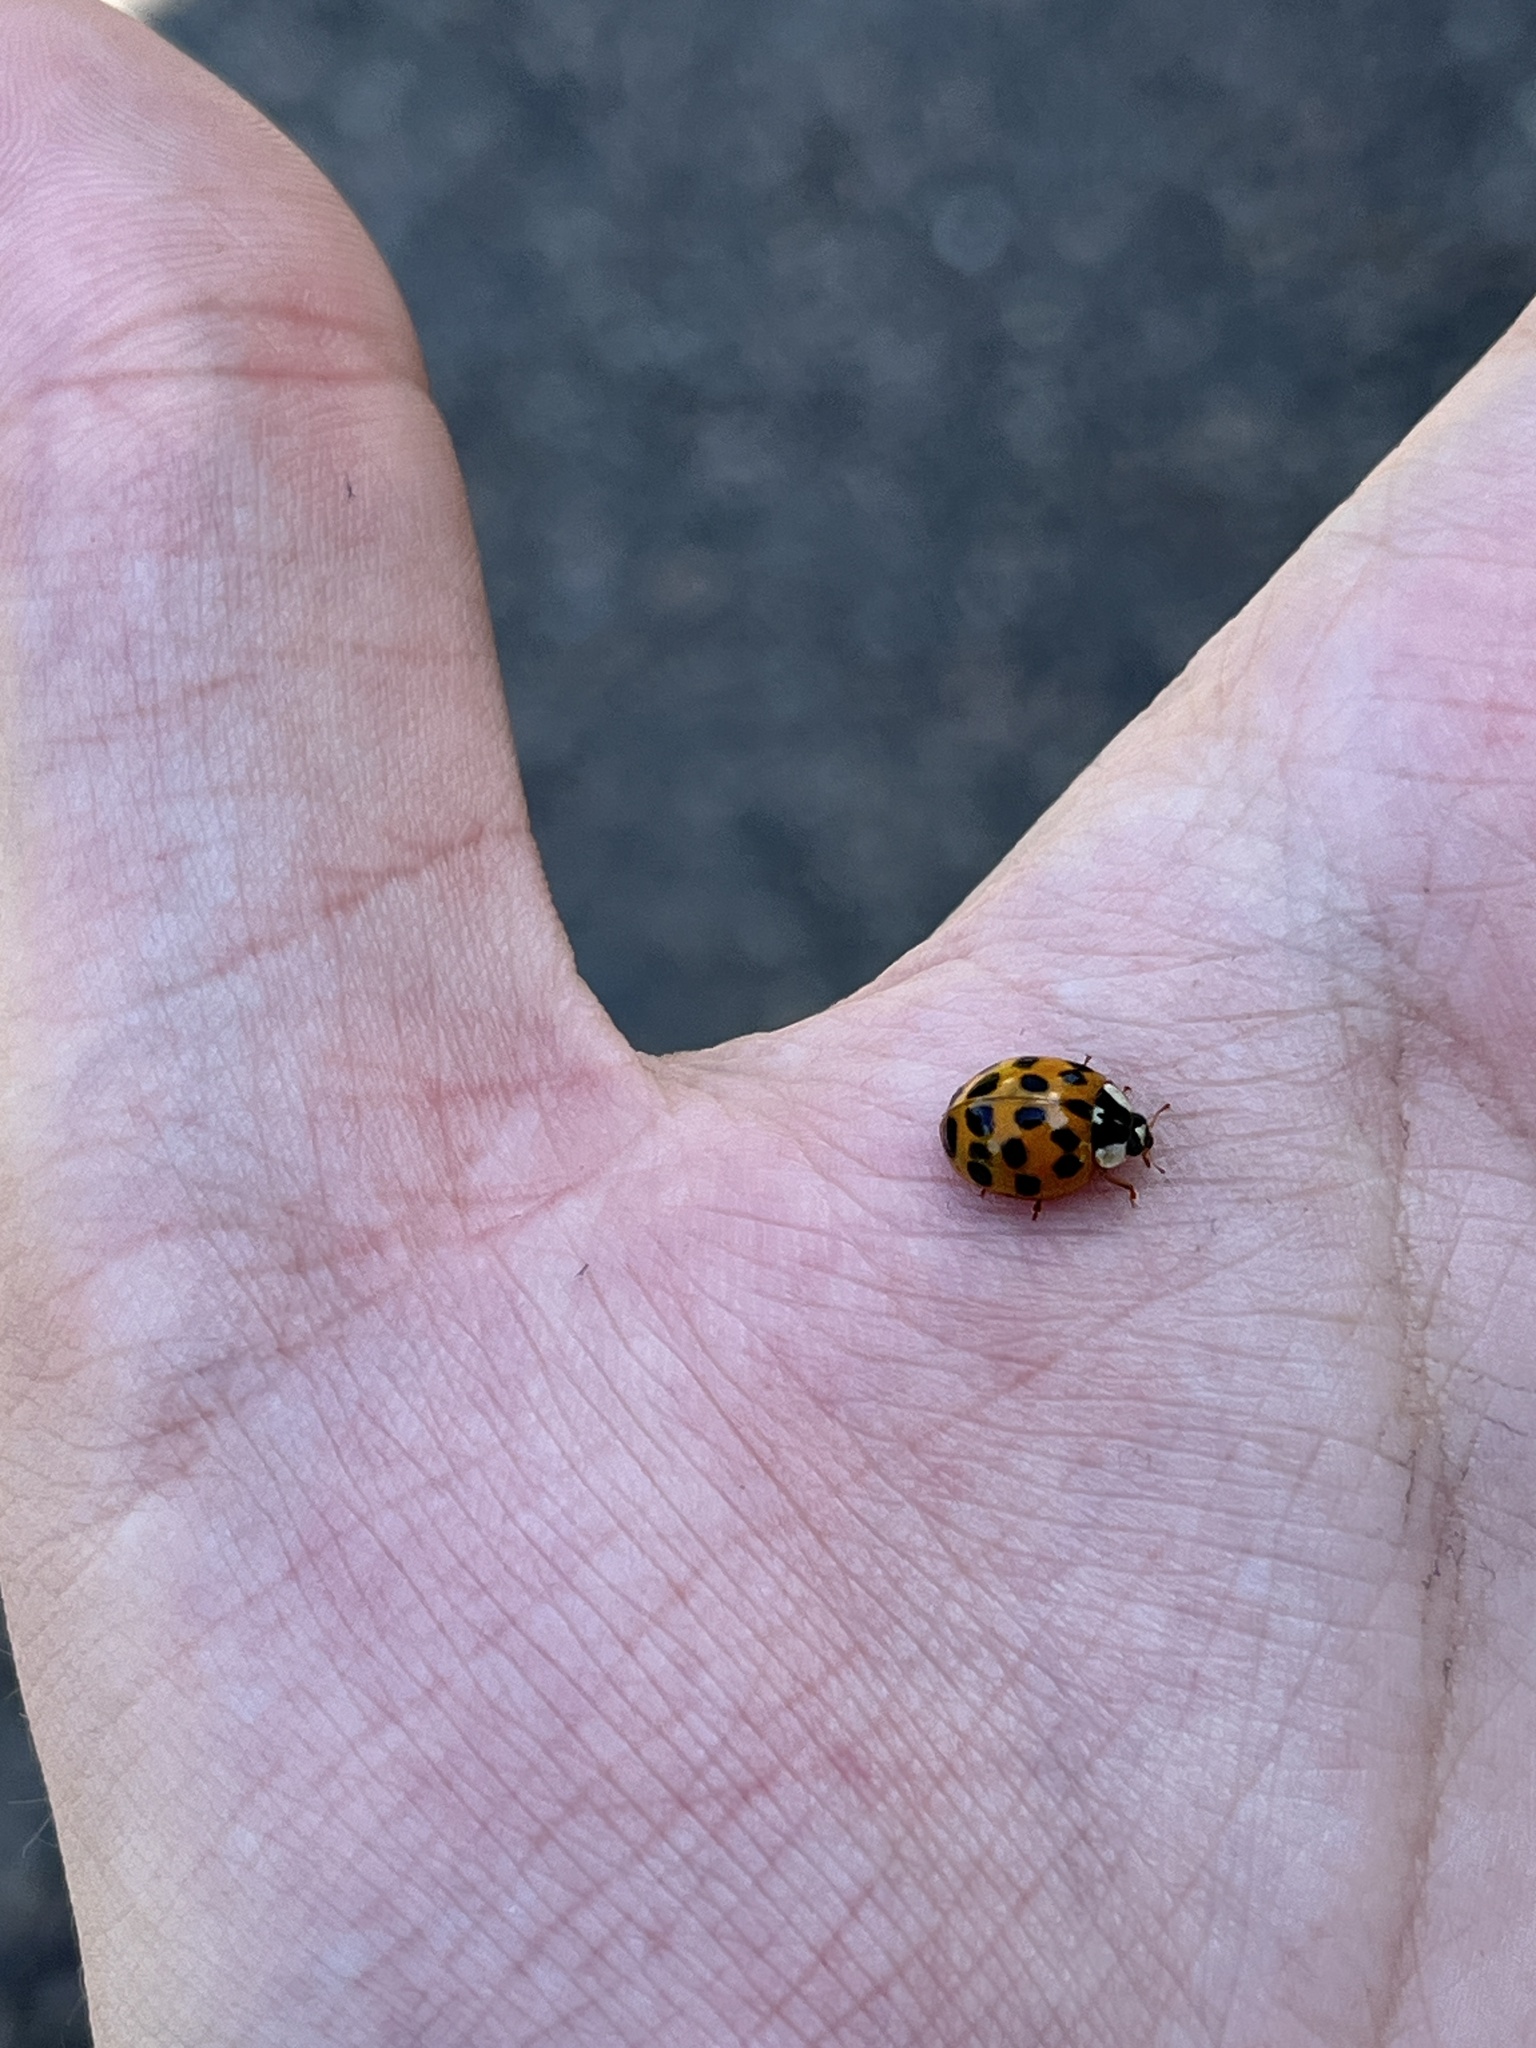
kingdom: Animalia
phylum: Arthropoda
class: Insecta
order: Coleoptera
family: Coccinellidae
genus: Harmonia
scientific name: Harmonia axyridis
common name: Harlequin ladybird
